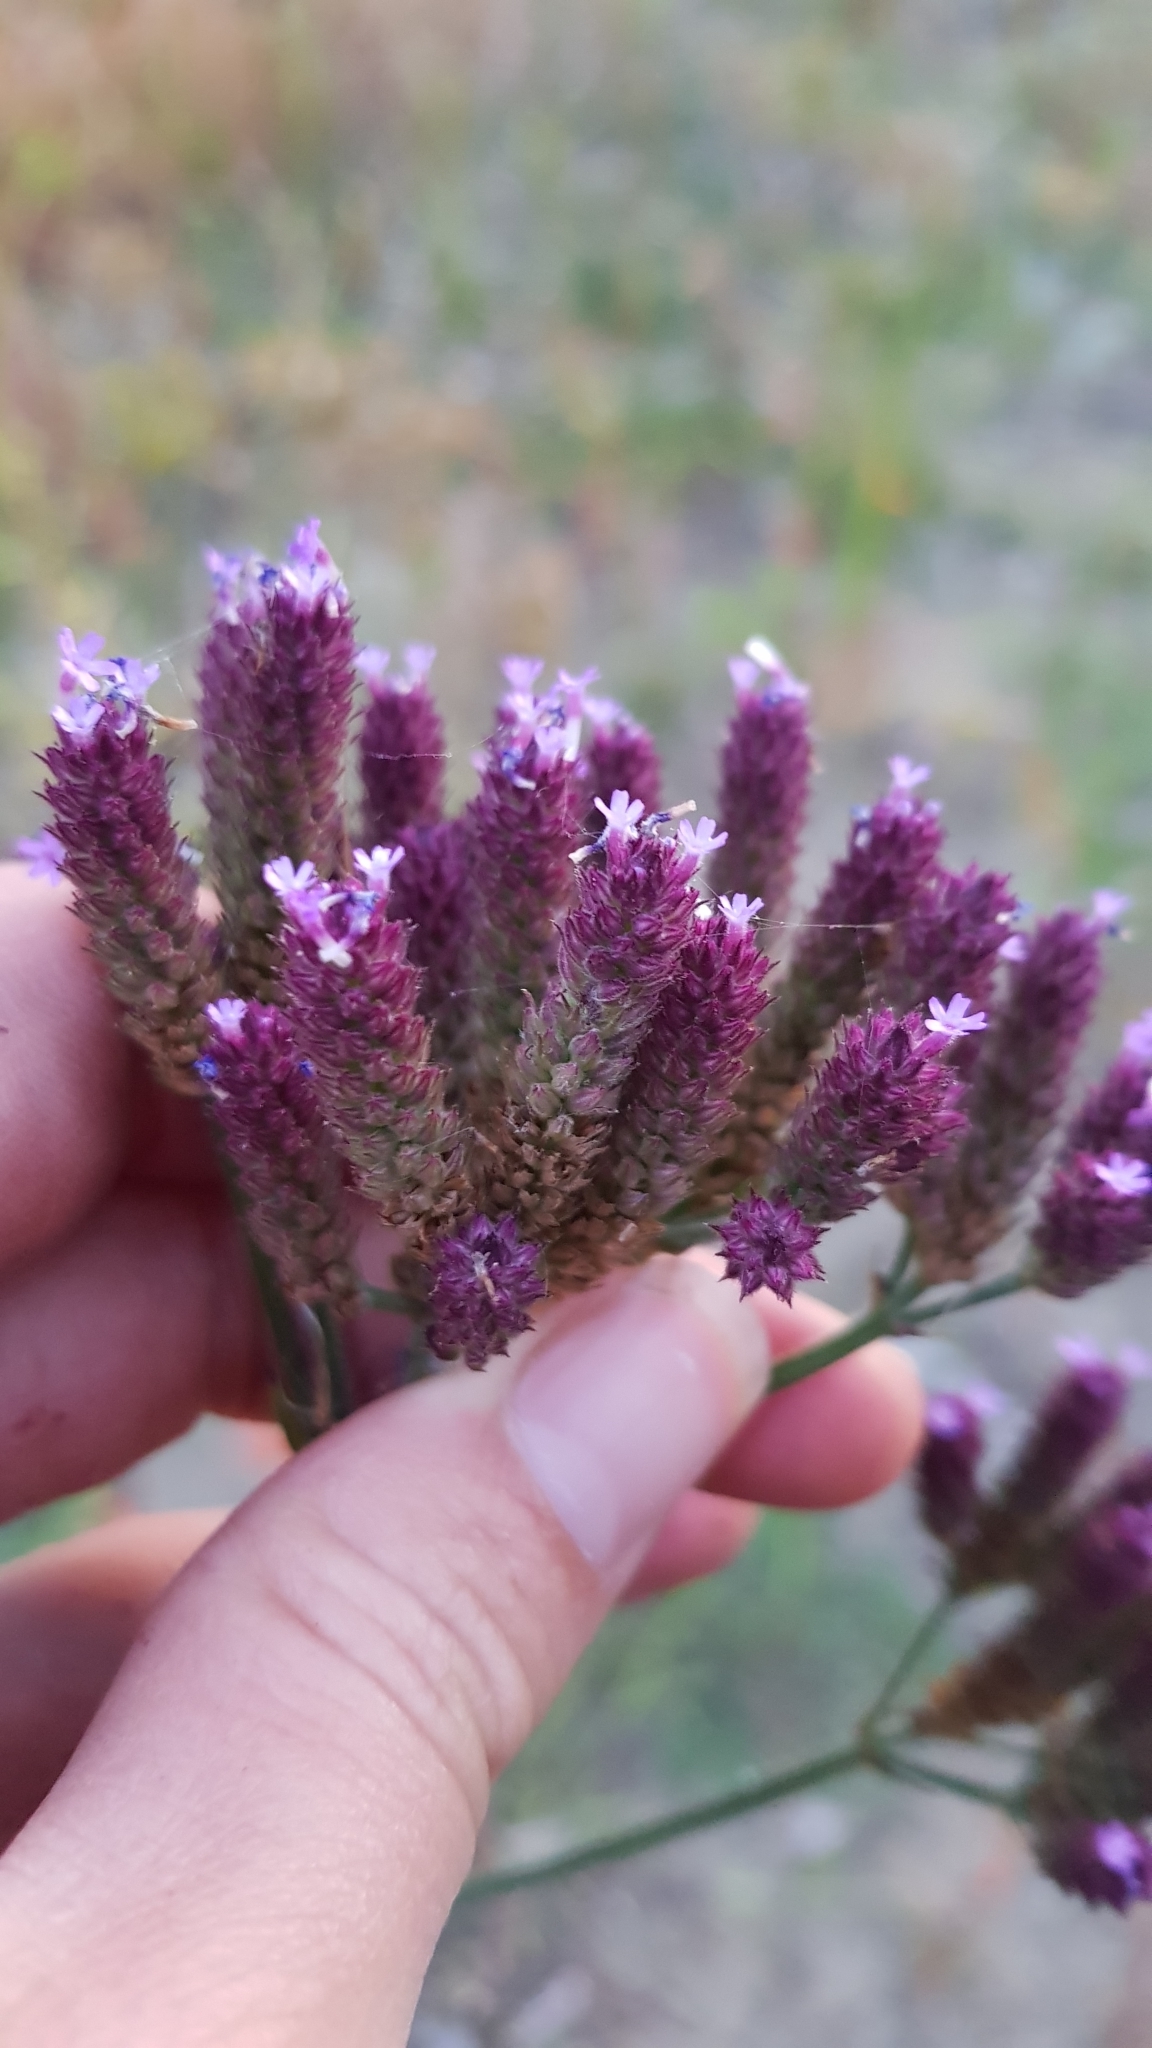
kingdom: Plantae
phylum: Tracheophyta
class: Magnoliopsida
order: Lamiales
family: Verbenaceae
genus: Verbena
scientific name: Verbena incompta
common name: Purpletop vervain
